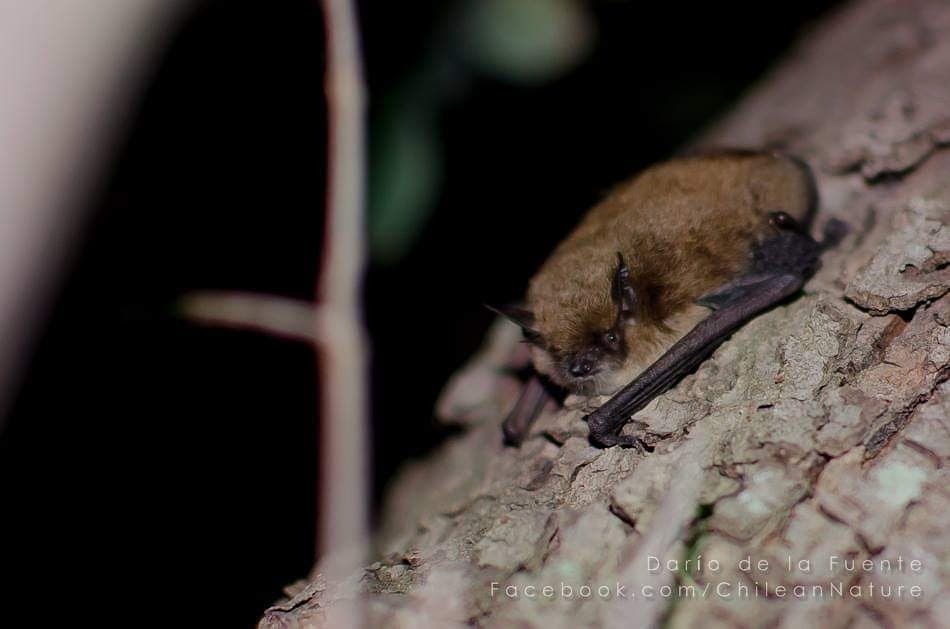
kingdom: Animalia
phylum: Chordata
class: Mammalia
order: Chiroptera
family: Vespertilionidae
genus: Myotis
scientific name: Myotis chiloensis
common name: Chilean myotis
